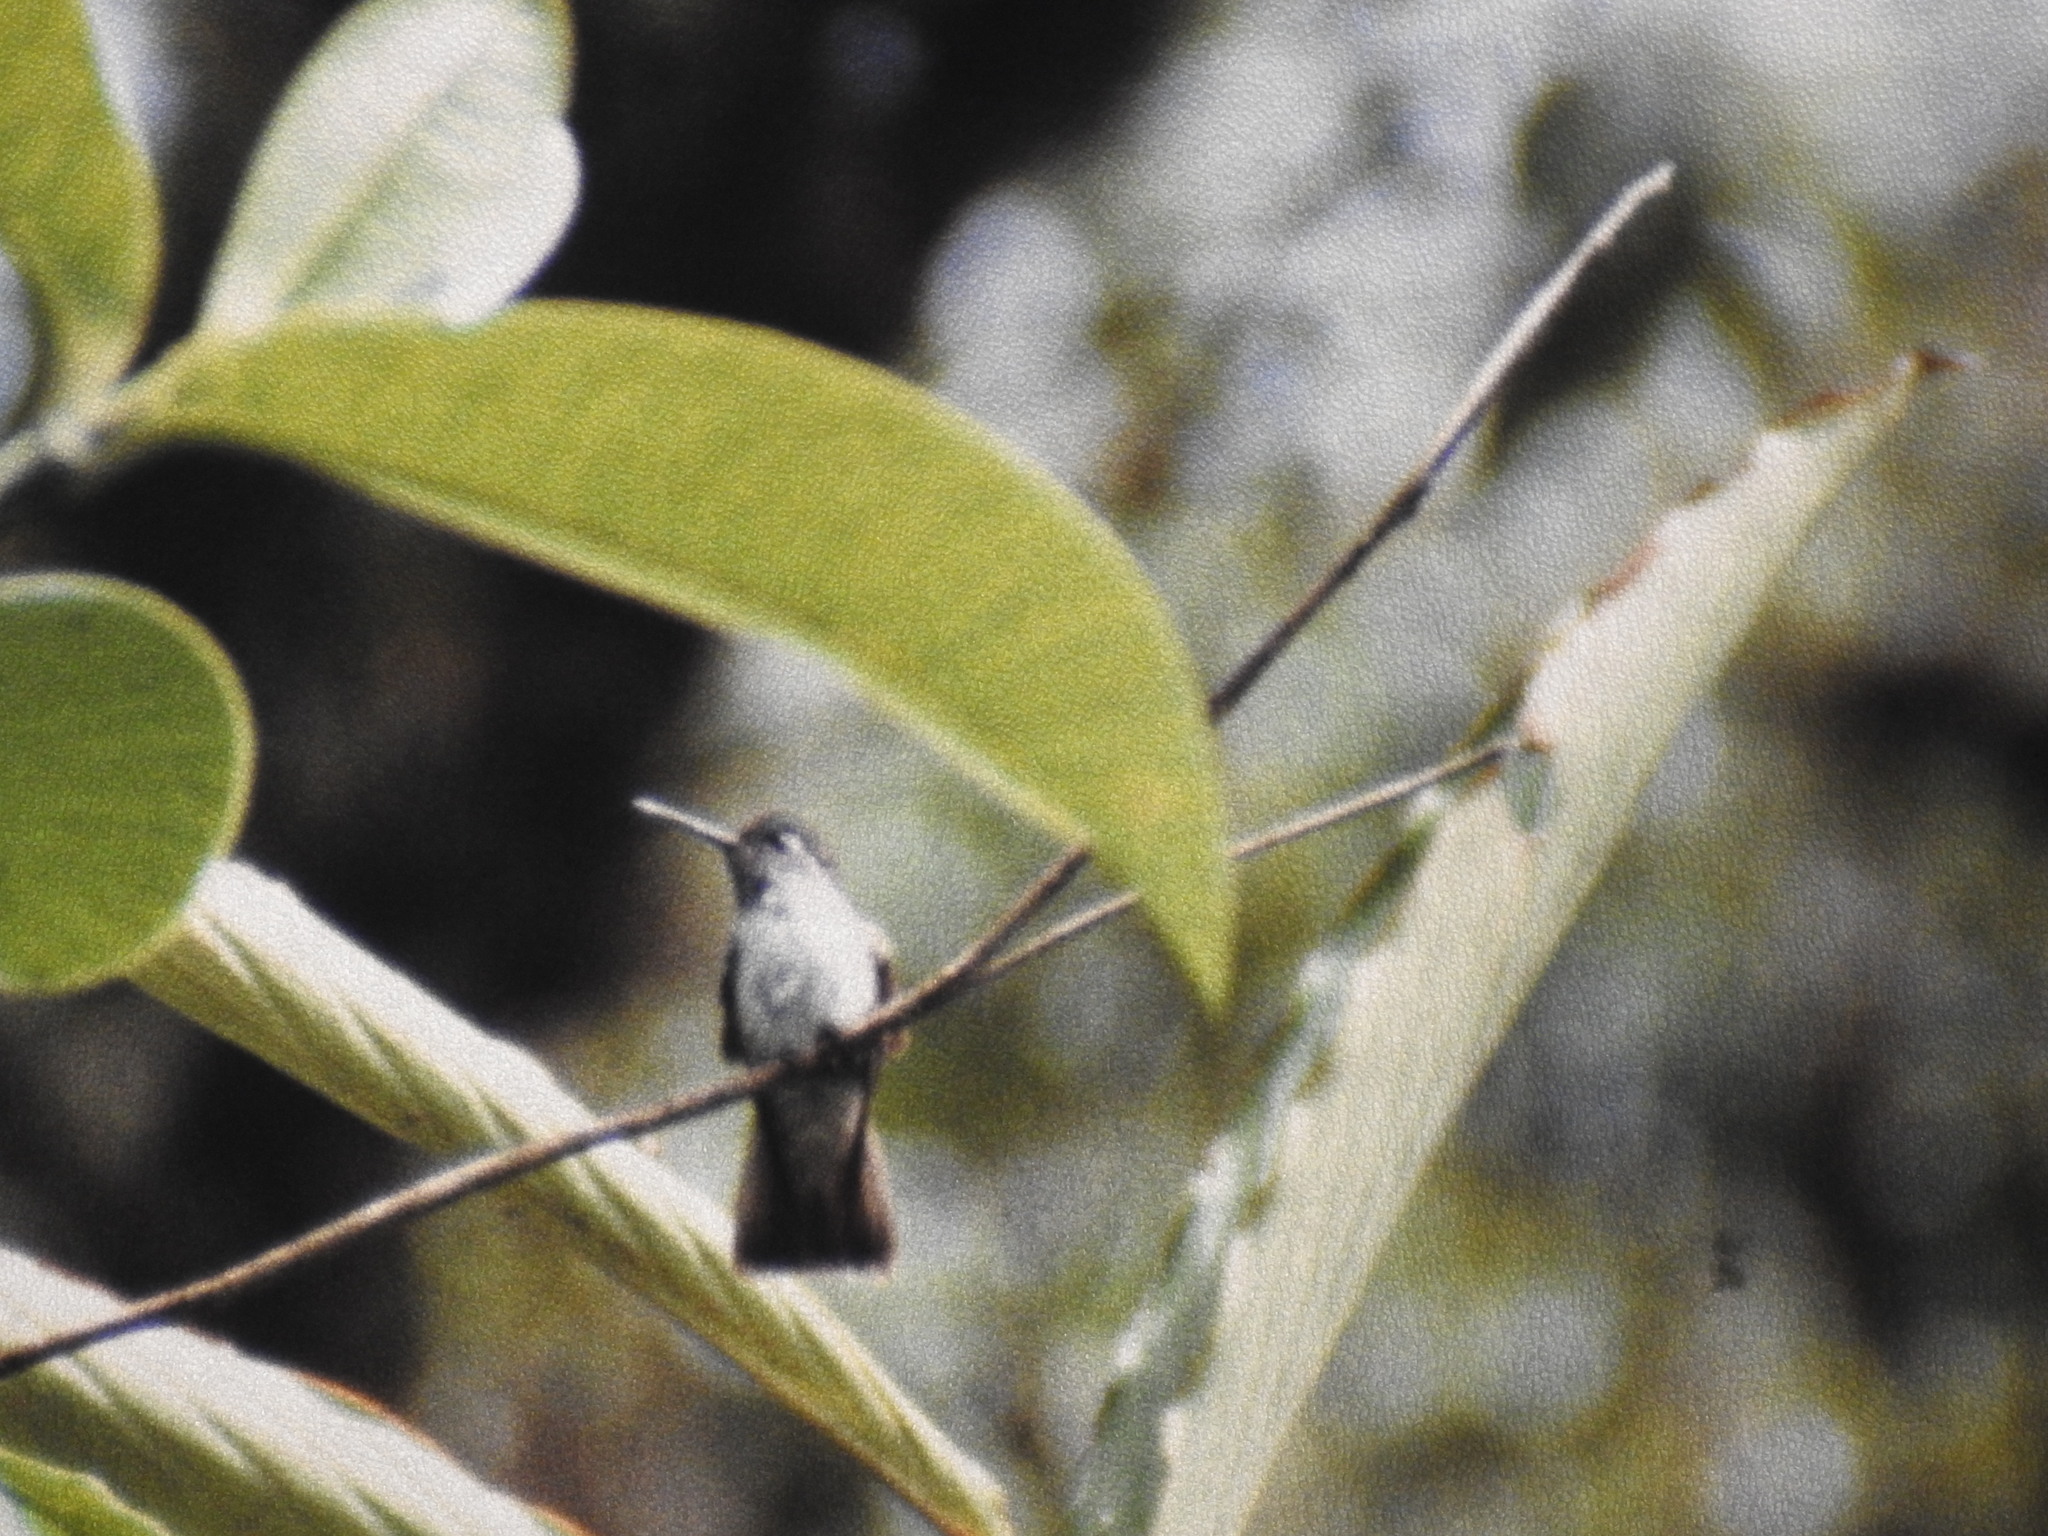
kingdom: Animalia
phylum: Chordata
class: Aves
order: Apodiformes
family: Trochilidae
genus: Lampornis
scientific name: Lampornis hemileucus
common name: White-bellied mountain-gem
